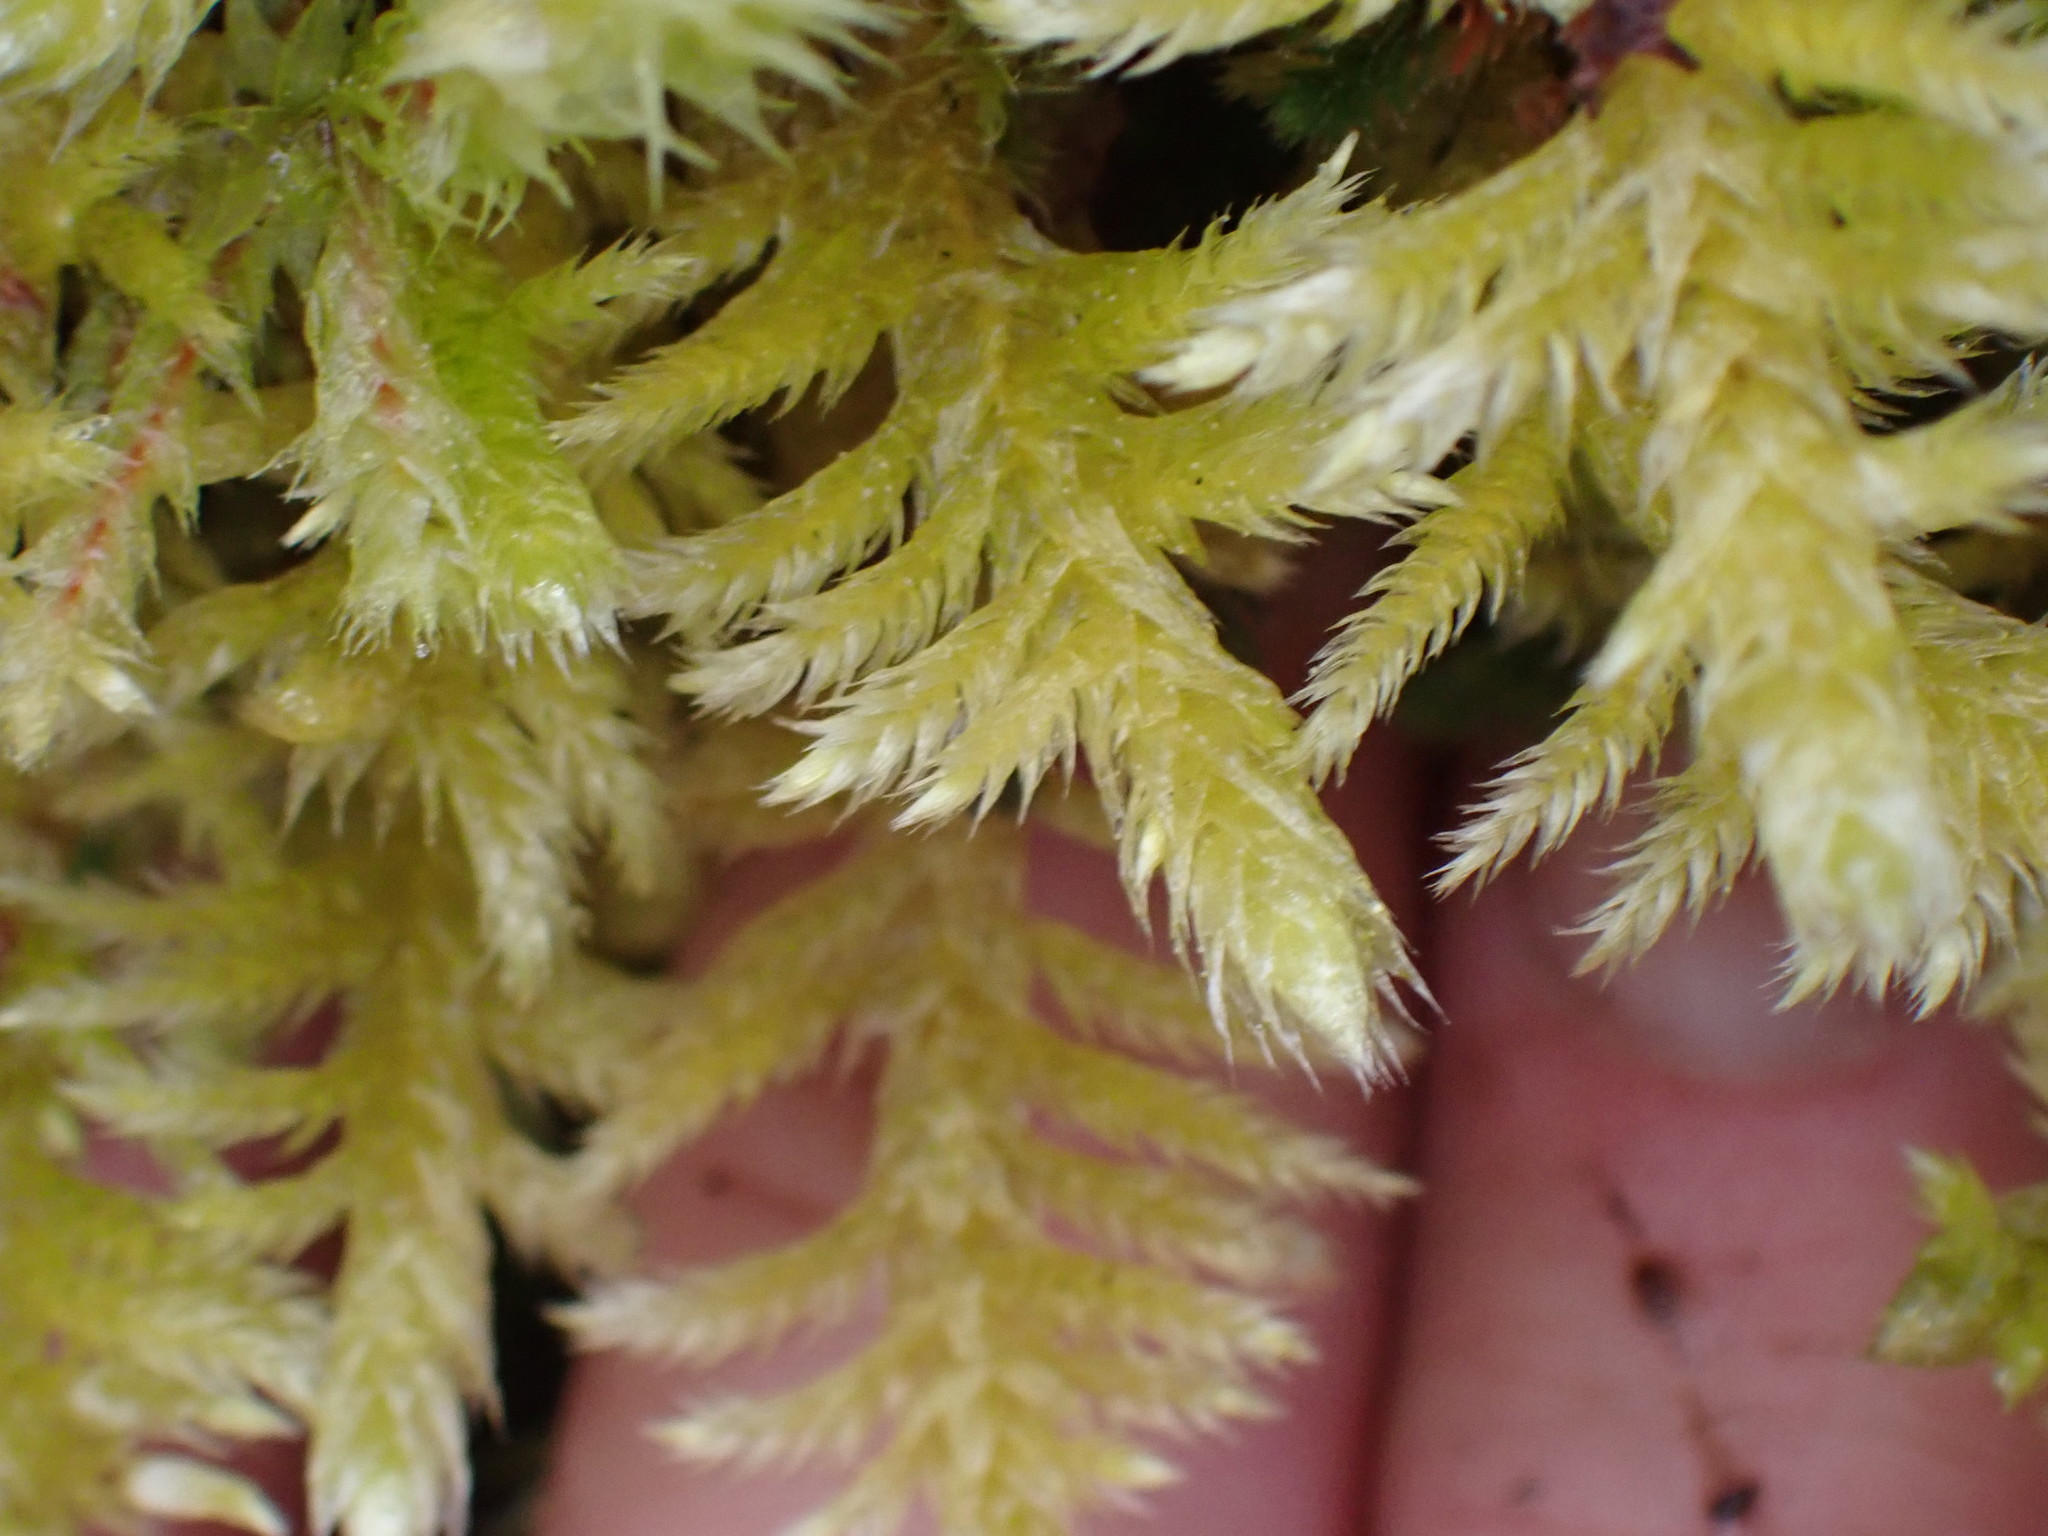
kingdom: Plantae
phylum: Bryophyta
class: Bryopsida
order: Hypnales
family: Brachytheciaceae
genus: Homalothecium
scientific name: Homalothecium megaptilum
